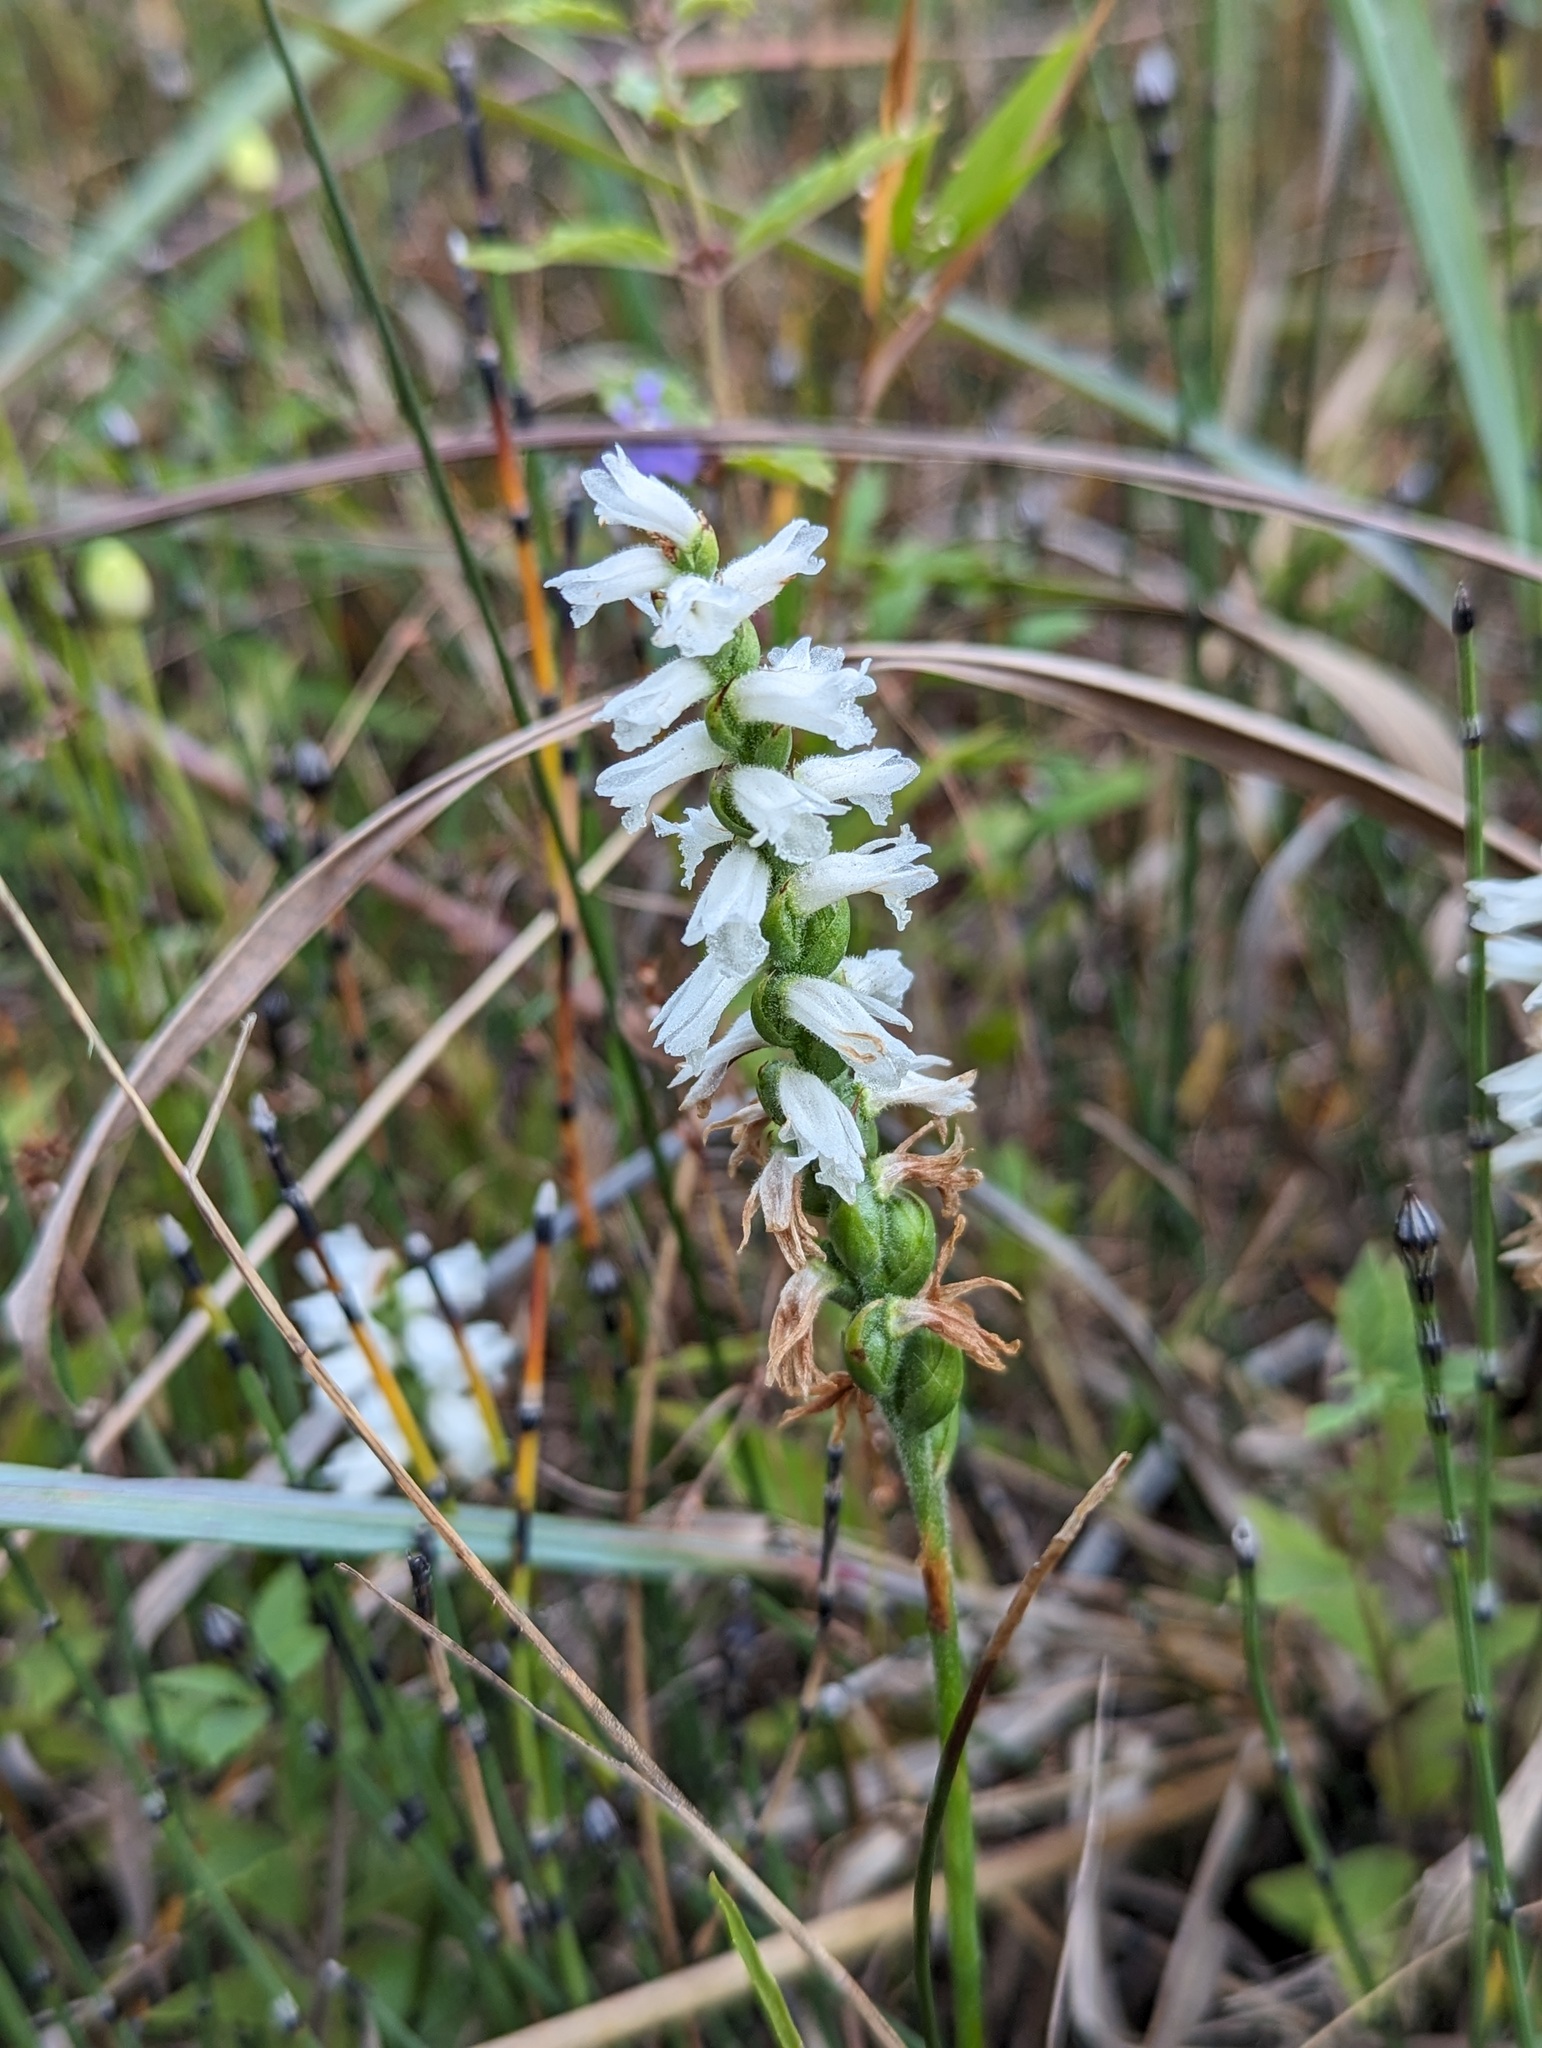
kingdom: Plantae
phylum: Tracheophyta
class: Liliopsida
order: Asparagales
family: Orchidaceae
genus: Spiranthes
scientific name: Spiranthes incurva
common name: Sphinx ladies'-tresses
